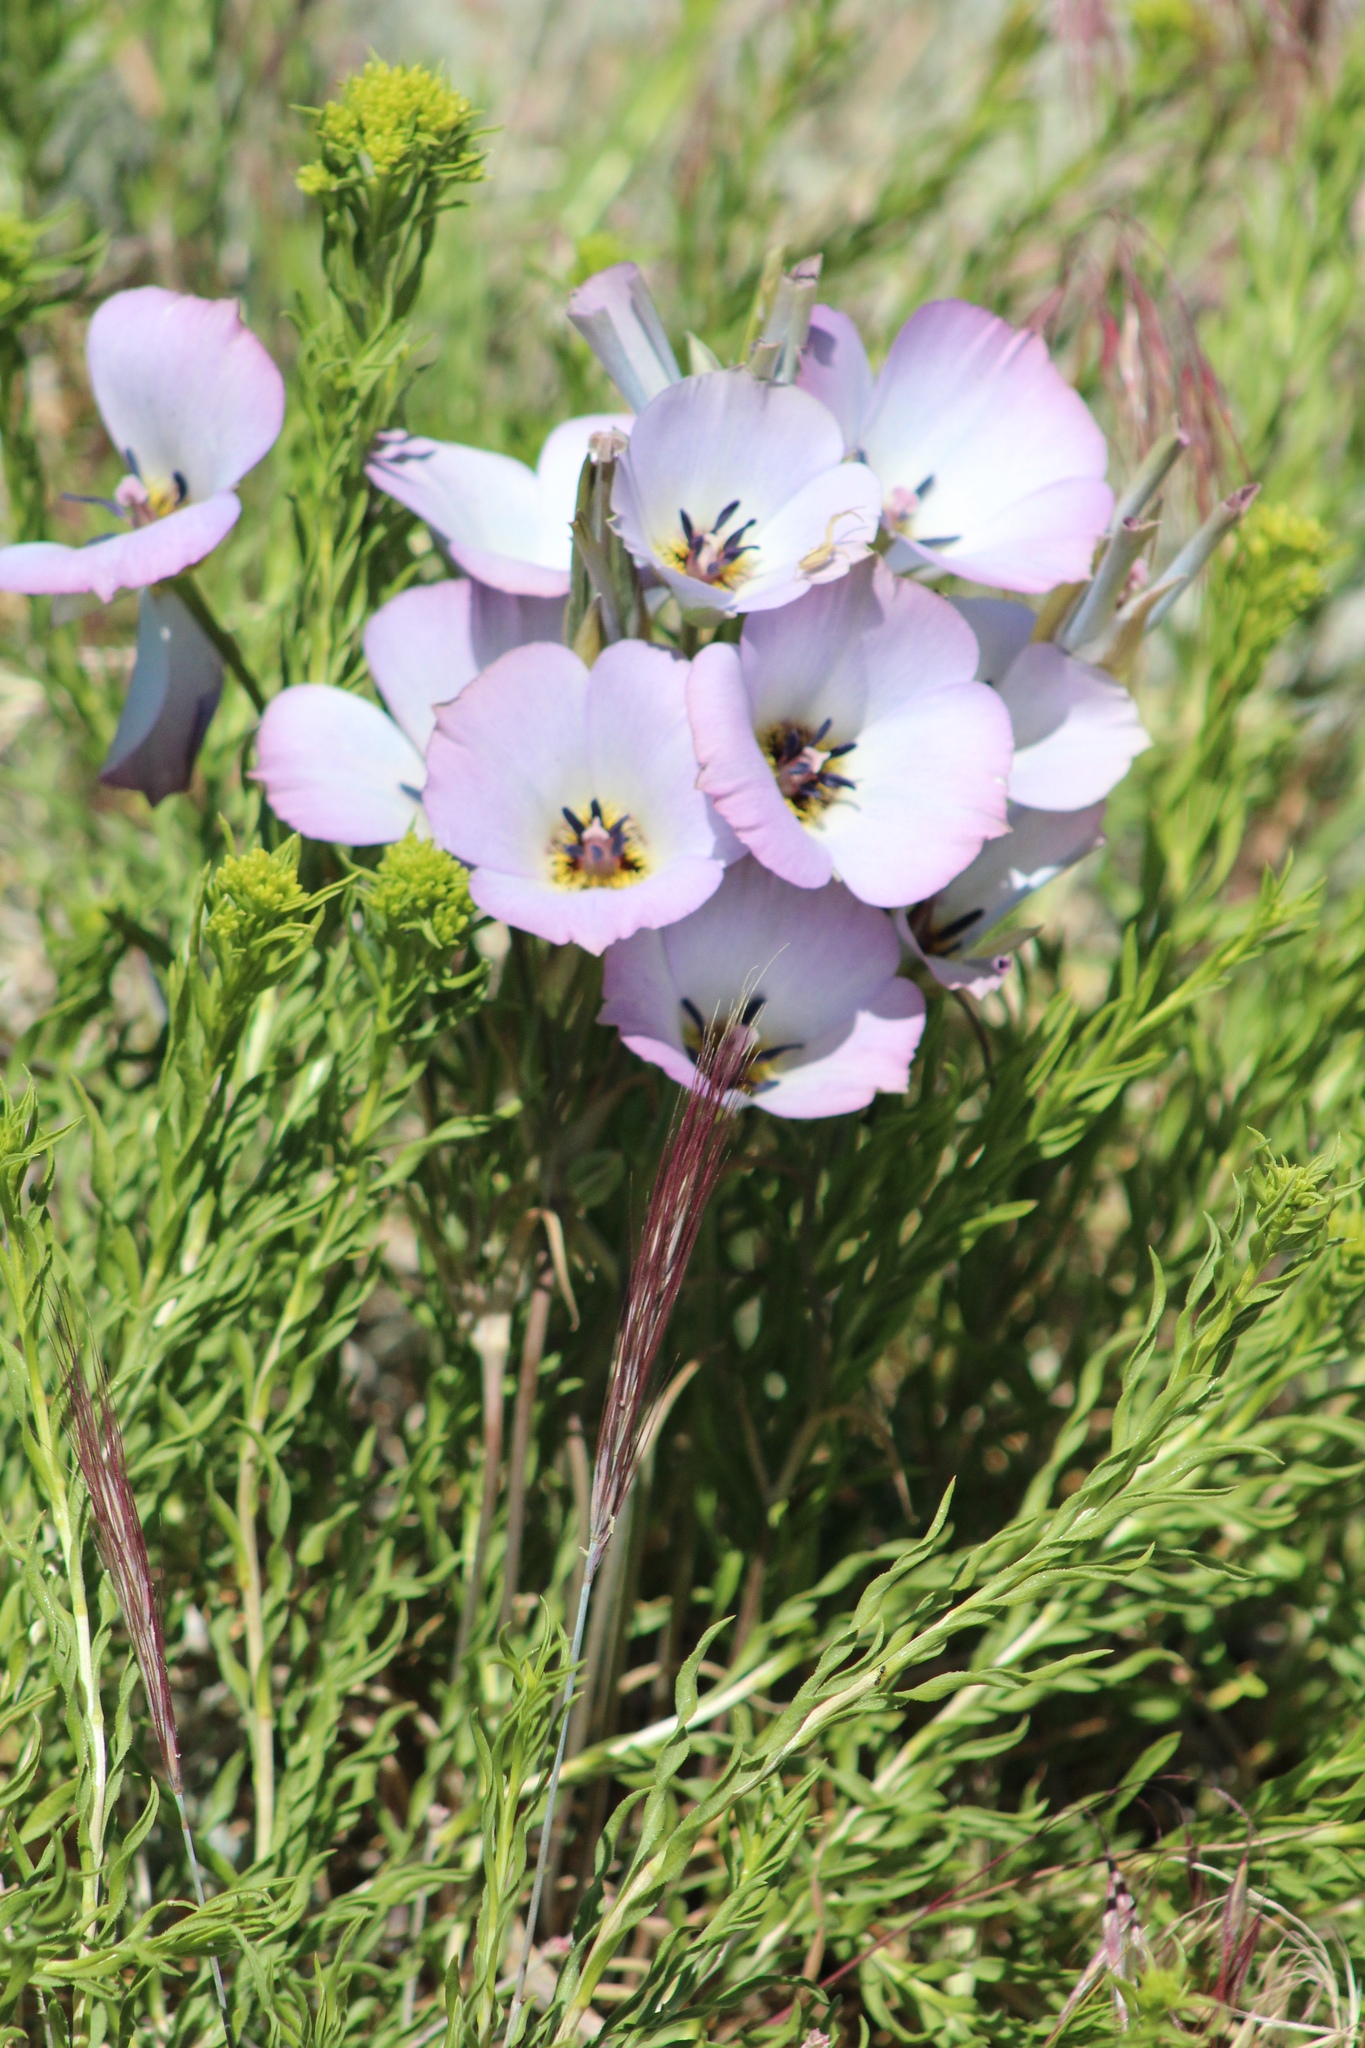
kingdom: Plantae
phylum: Tracheophyta
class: Liliopsida
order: Liliales
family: Liliaceae
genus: Calochortus
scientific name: Calochortus invenustus
